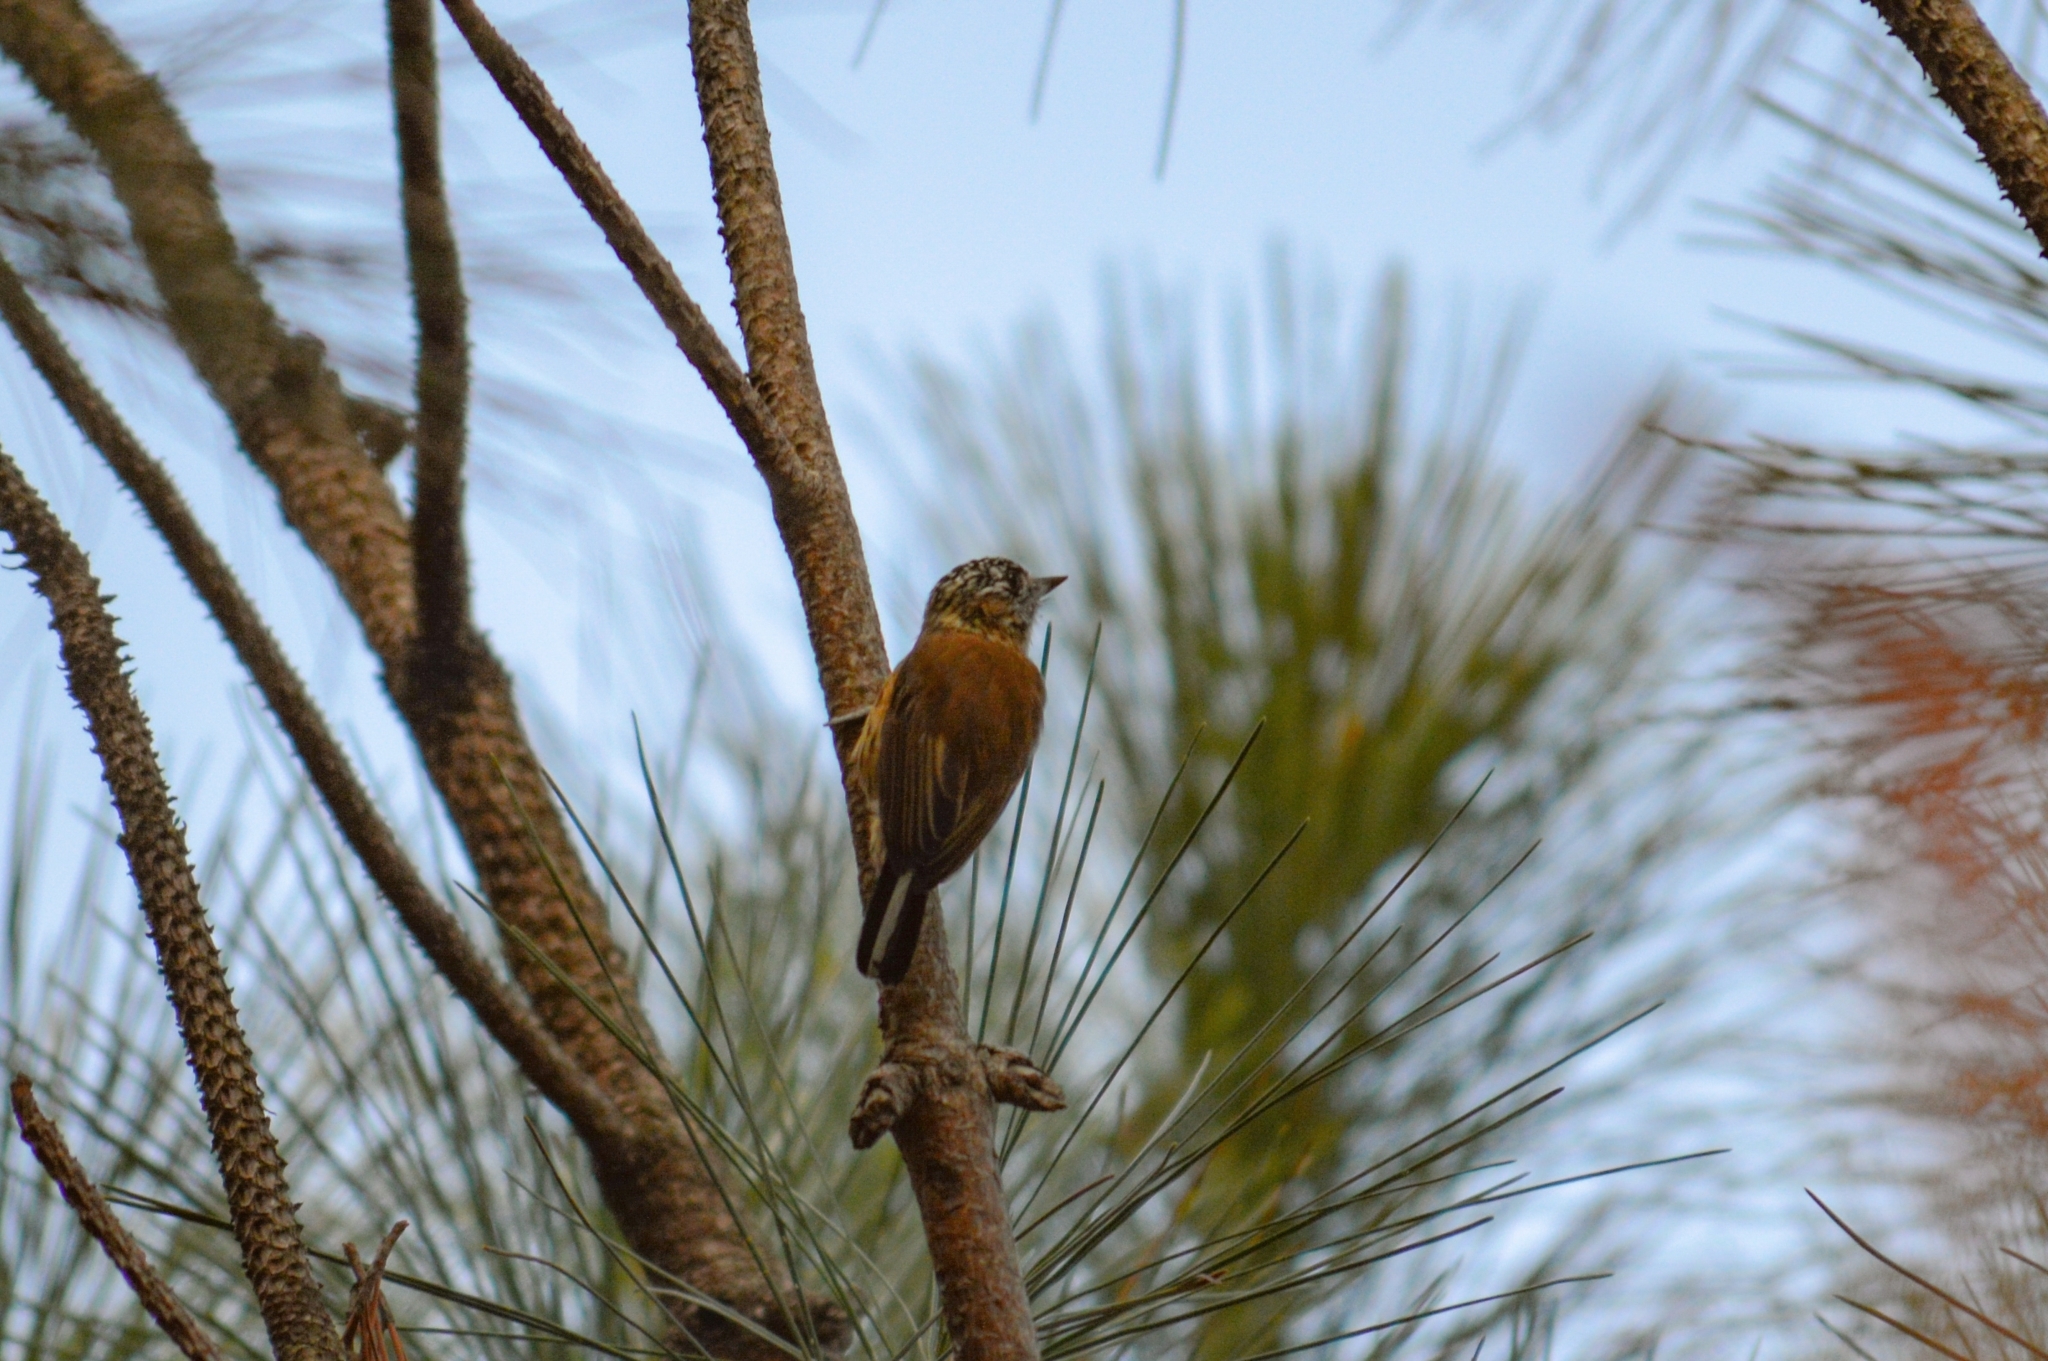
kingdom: Animalia
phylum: Chordata
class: Aves
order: Piciformes
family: Picidae
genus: Picumnus
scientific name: Picumnus nebulosus
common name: Mottled piculet
